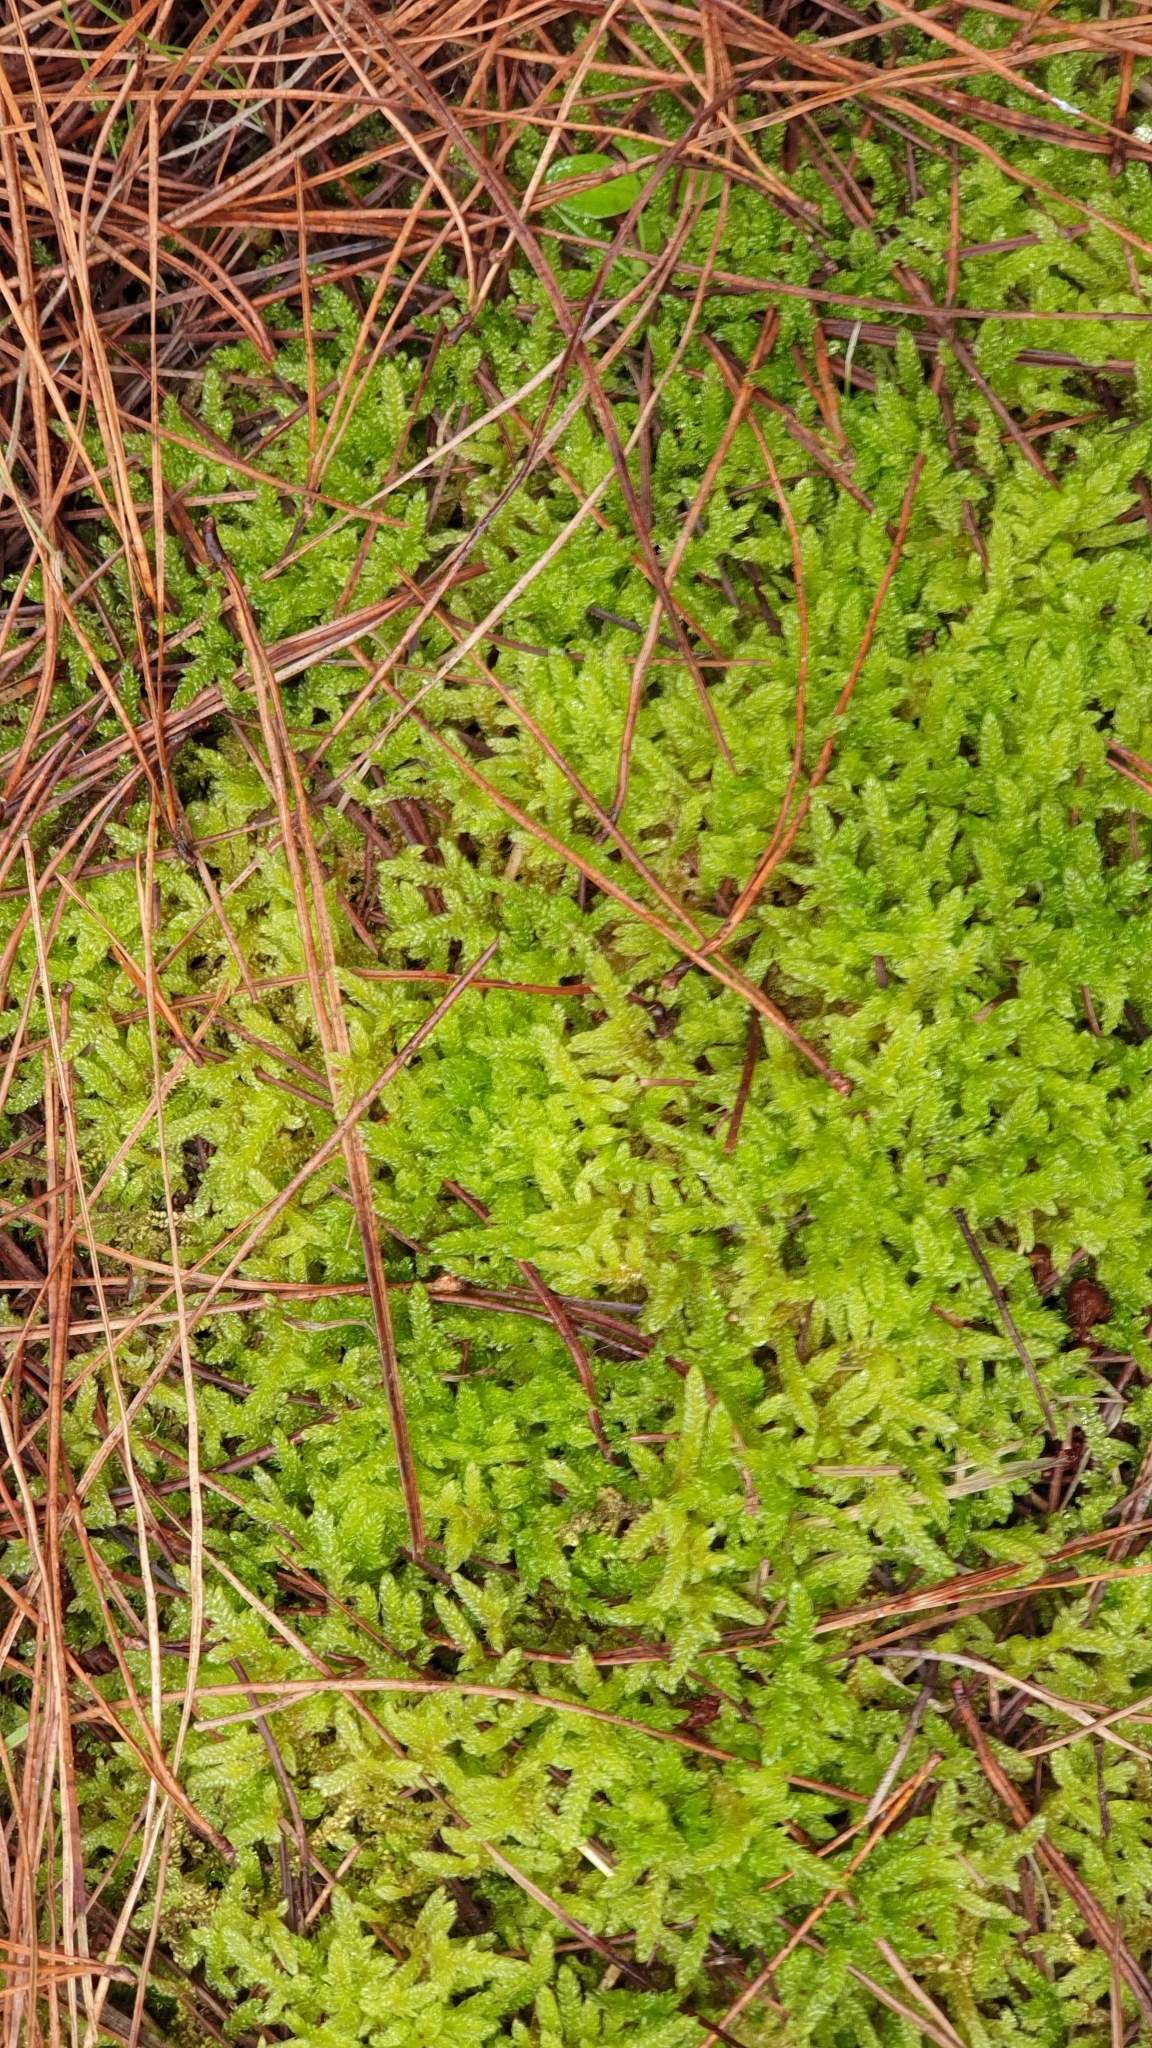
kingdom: Plantae
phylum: Bryophyta
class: Bryopsida
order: Hypnales
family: Hypnaceae
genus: Hypnum
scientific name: Hypnum cupressiforme
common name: Cypress-leaved plait-moss
